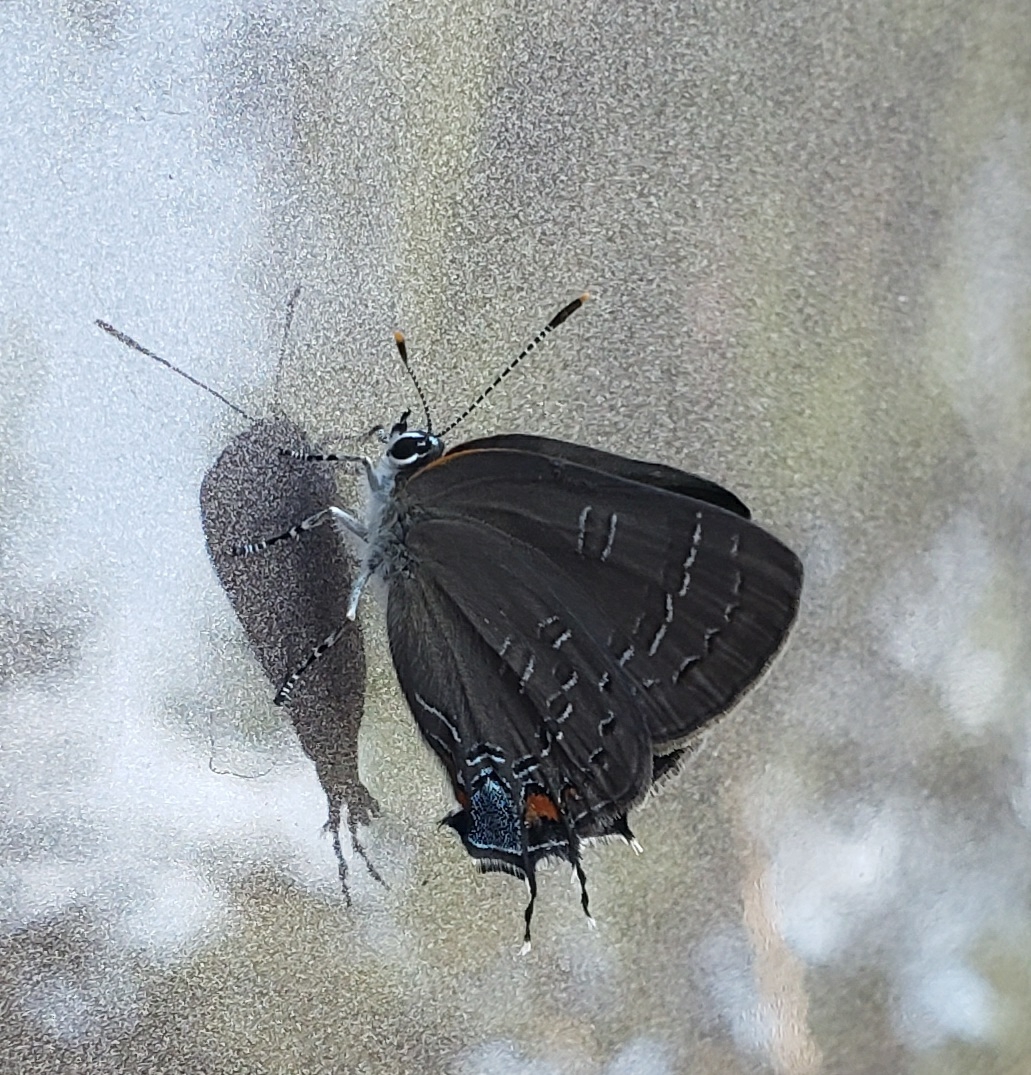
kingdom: Animalia
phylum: Arthropoda
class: Insecta
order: Lepidoptera
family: Lycaenidae
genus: Satyrium
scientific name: Satyrium calanus
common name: Banded hairstreak
